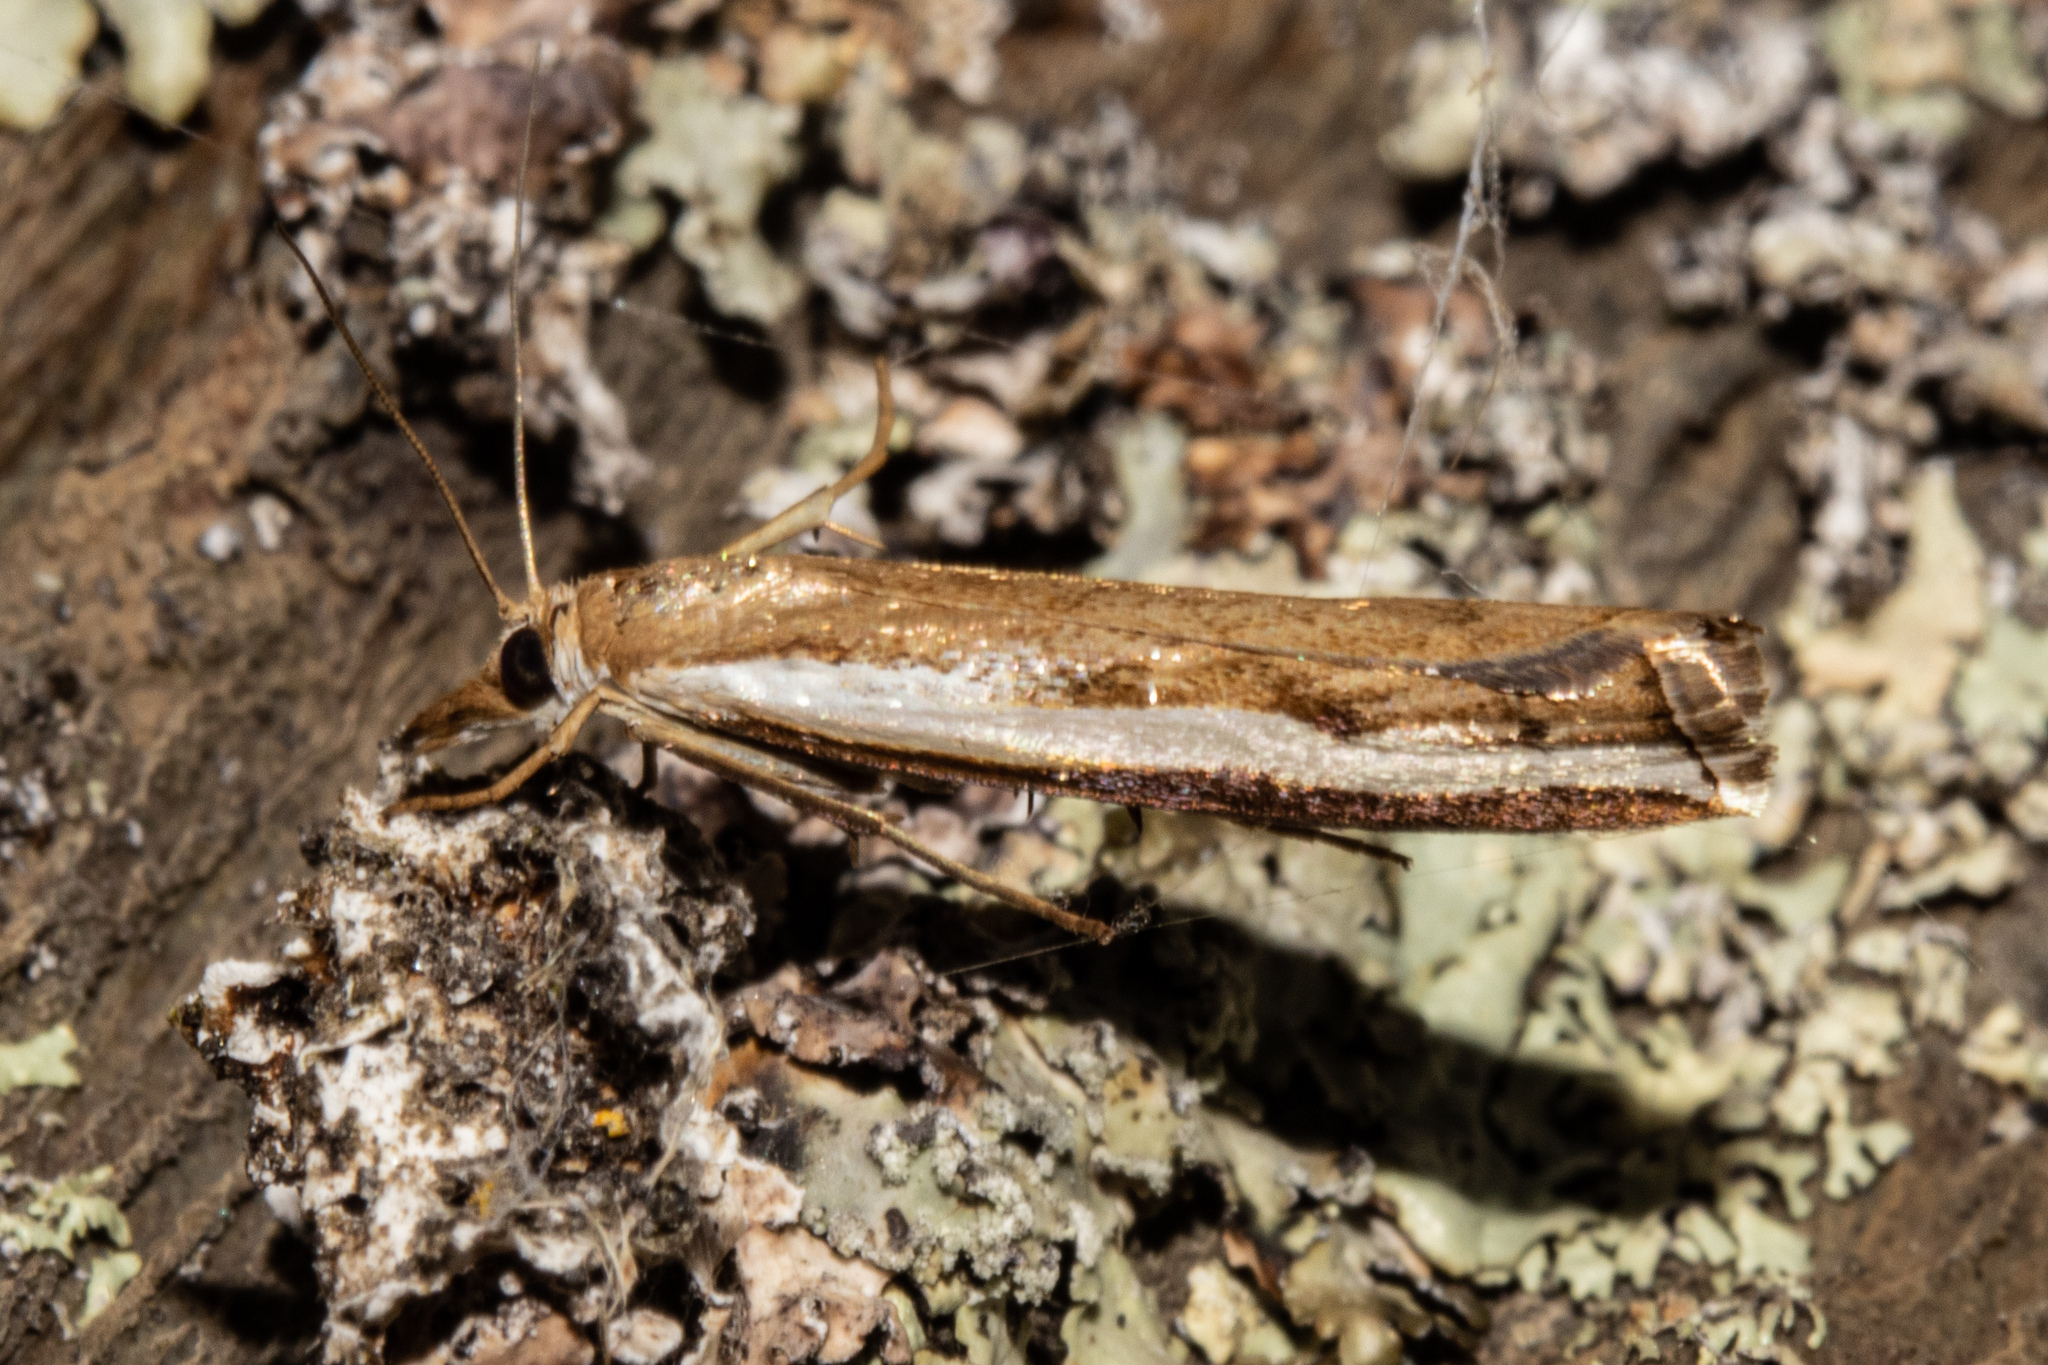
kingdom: Animalia
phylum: Arthropoda
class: Insecta
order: Lepidoptera
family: Crambidae
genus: Orocrambus
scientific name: Orocrambus flexuosellus
